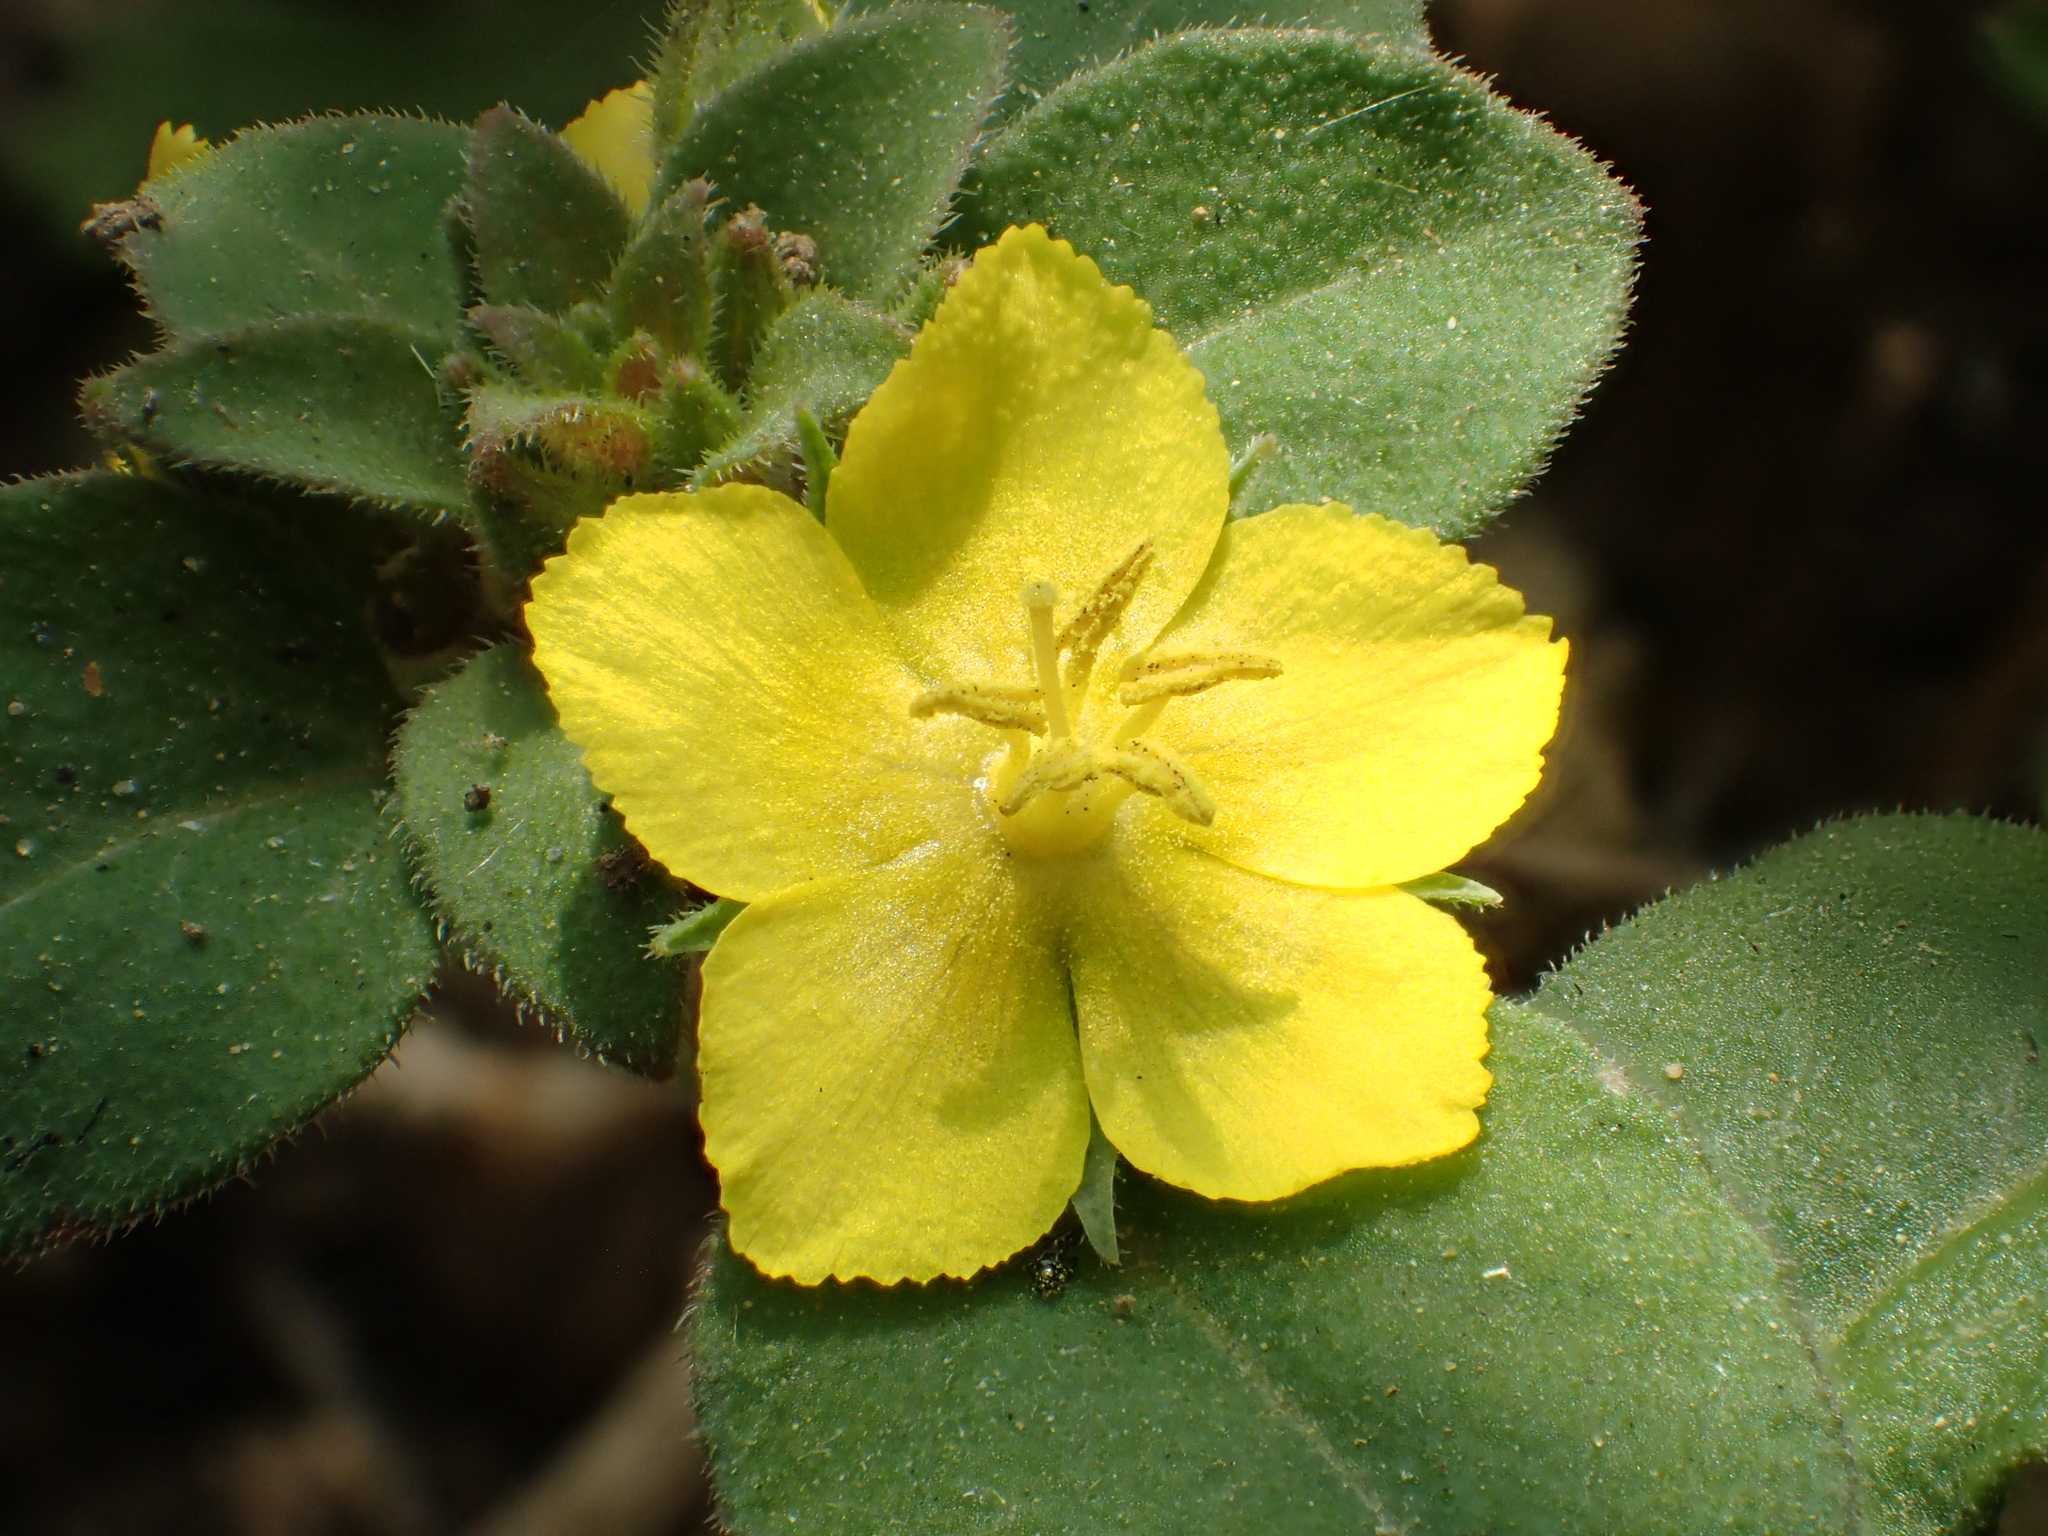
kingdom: Plantae
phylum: Tracheophyta
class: Magnoliopsida
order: Ericales
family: Primulaceae
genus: Lysimachia
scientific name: Lysimachia remota
